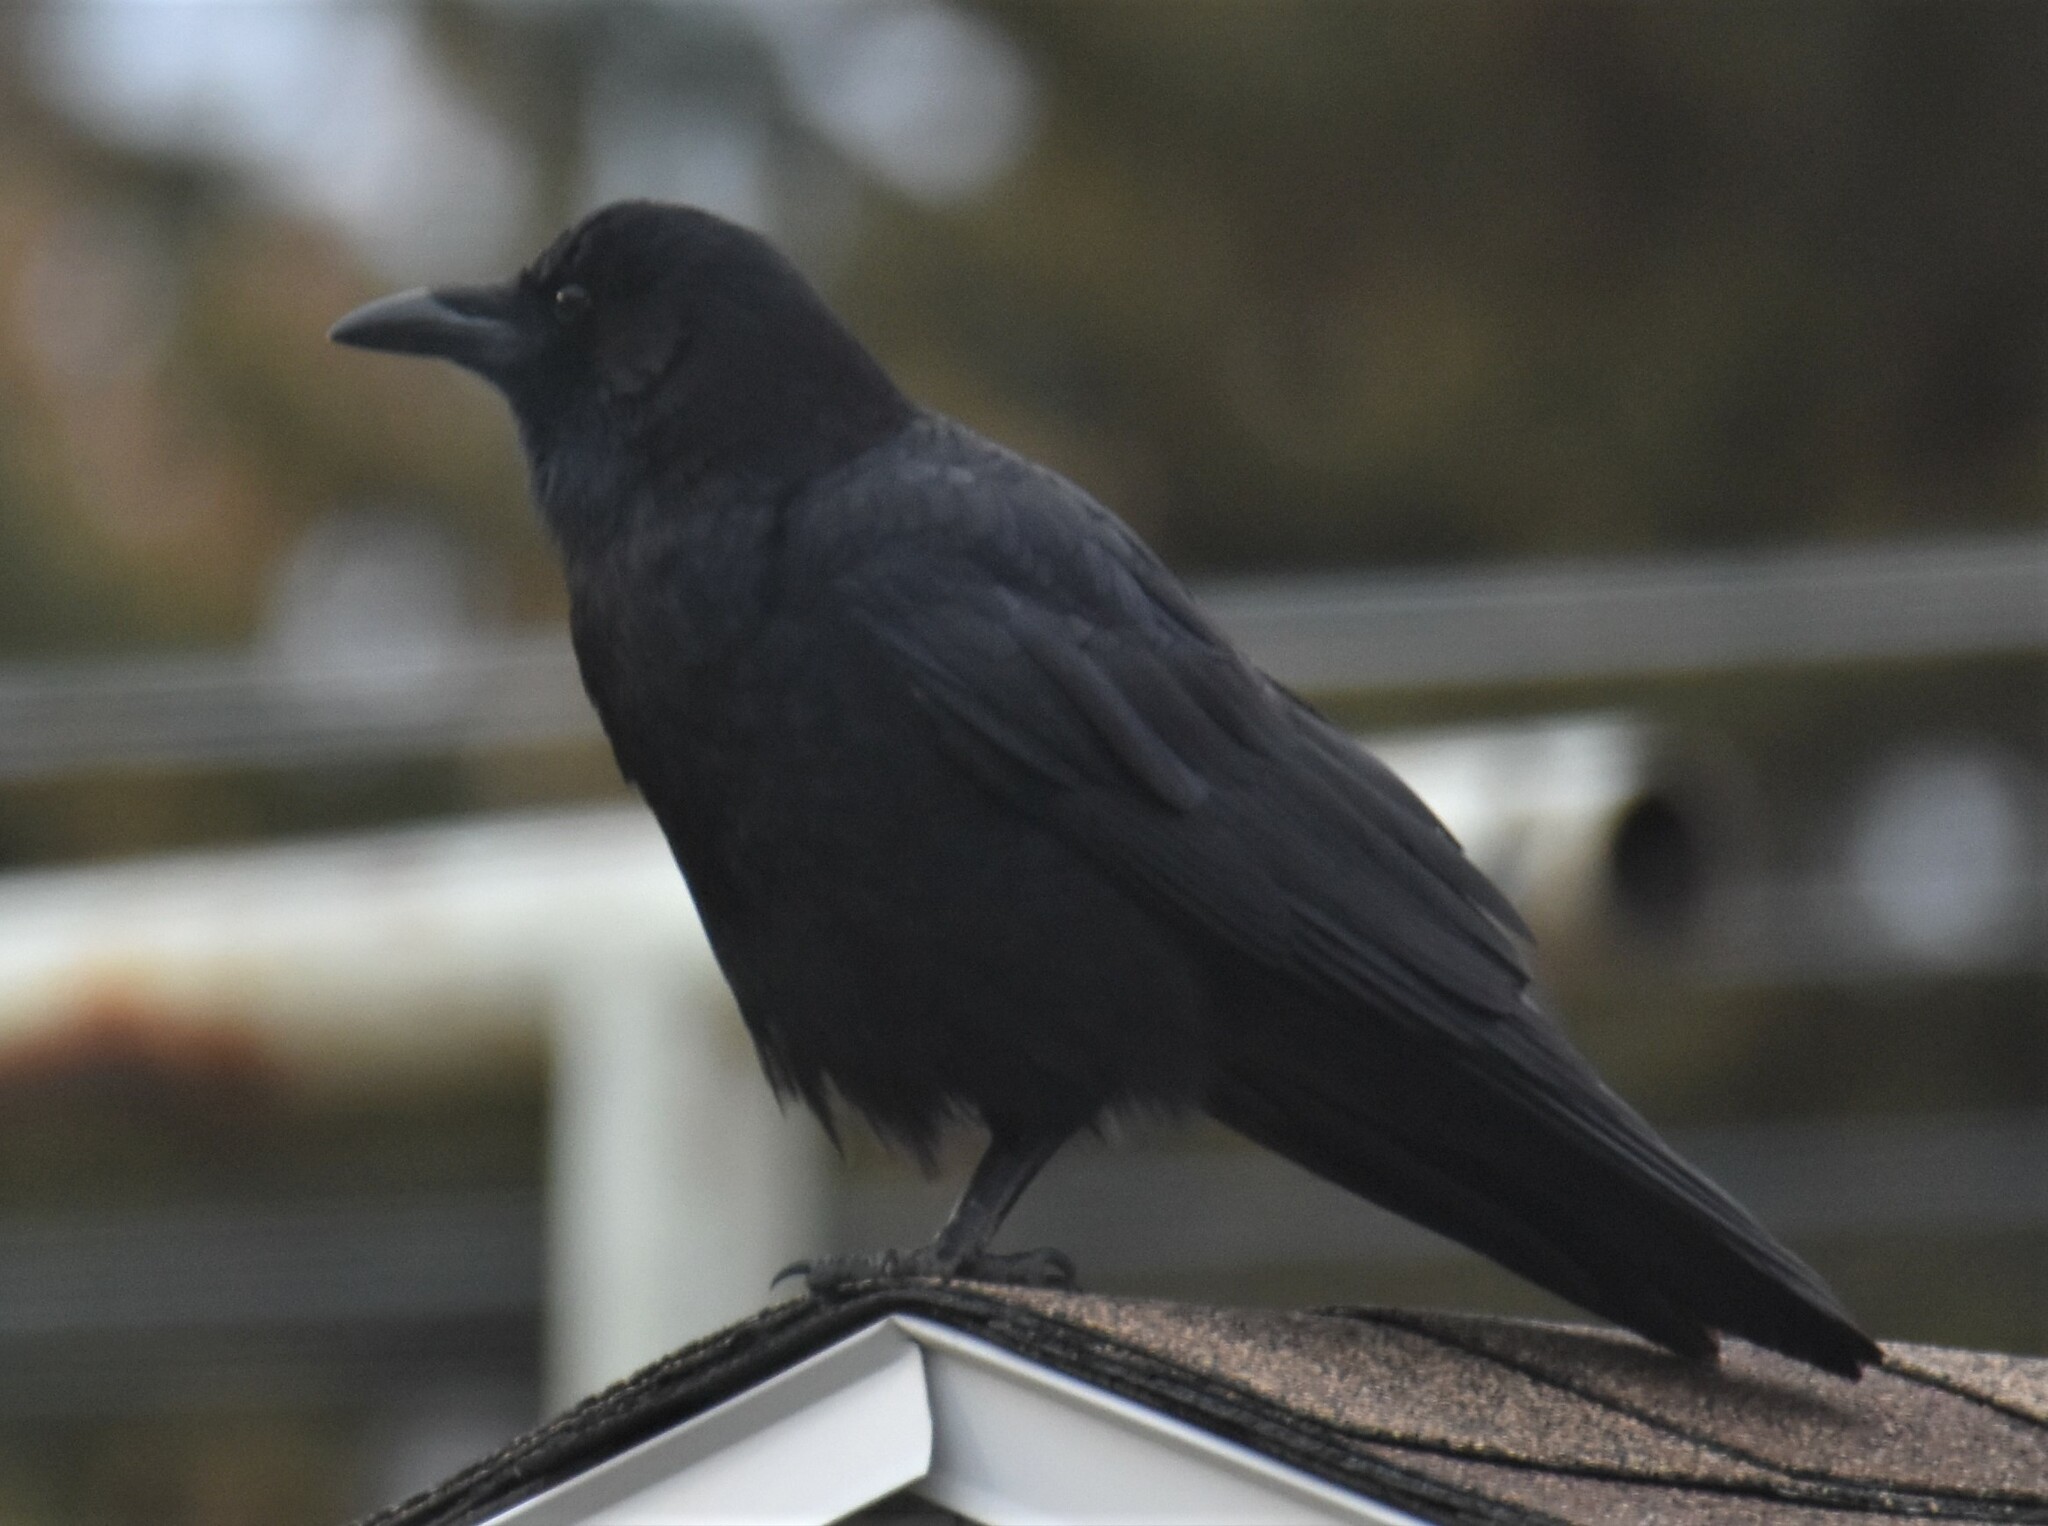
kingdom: Animalia
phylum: Chordata
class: Aves
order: Passeriformes
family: Corvidae
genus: Corvus
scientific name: Corvus brachyrhynchos
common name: American crow
